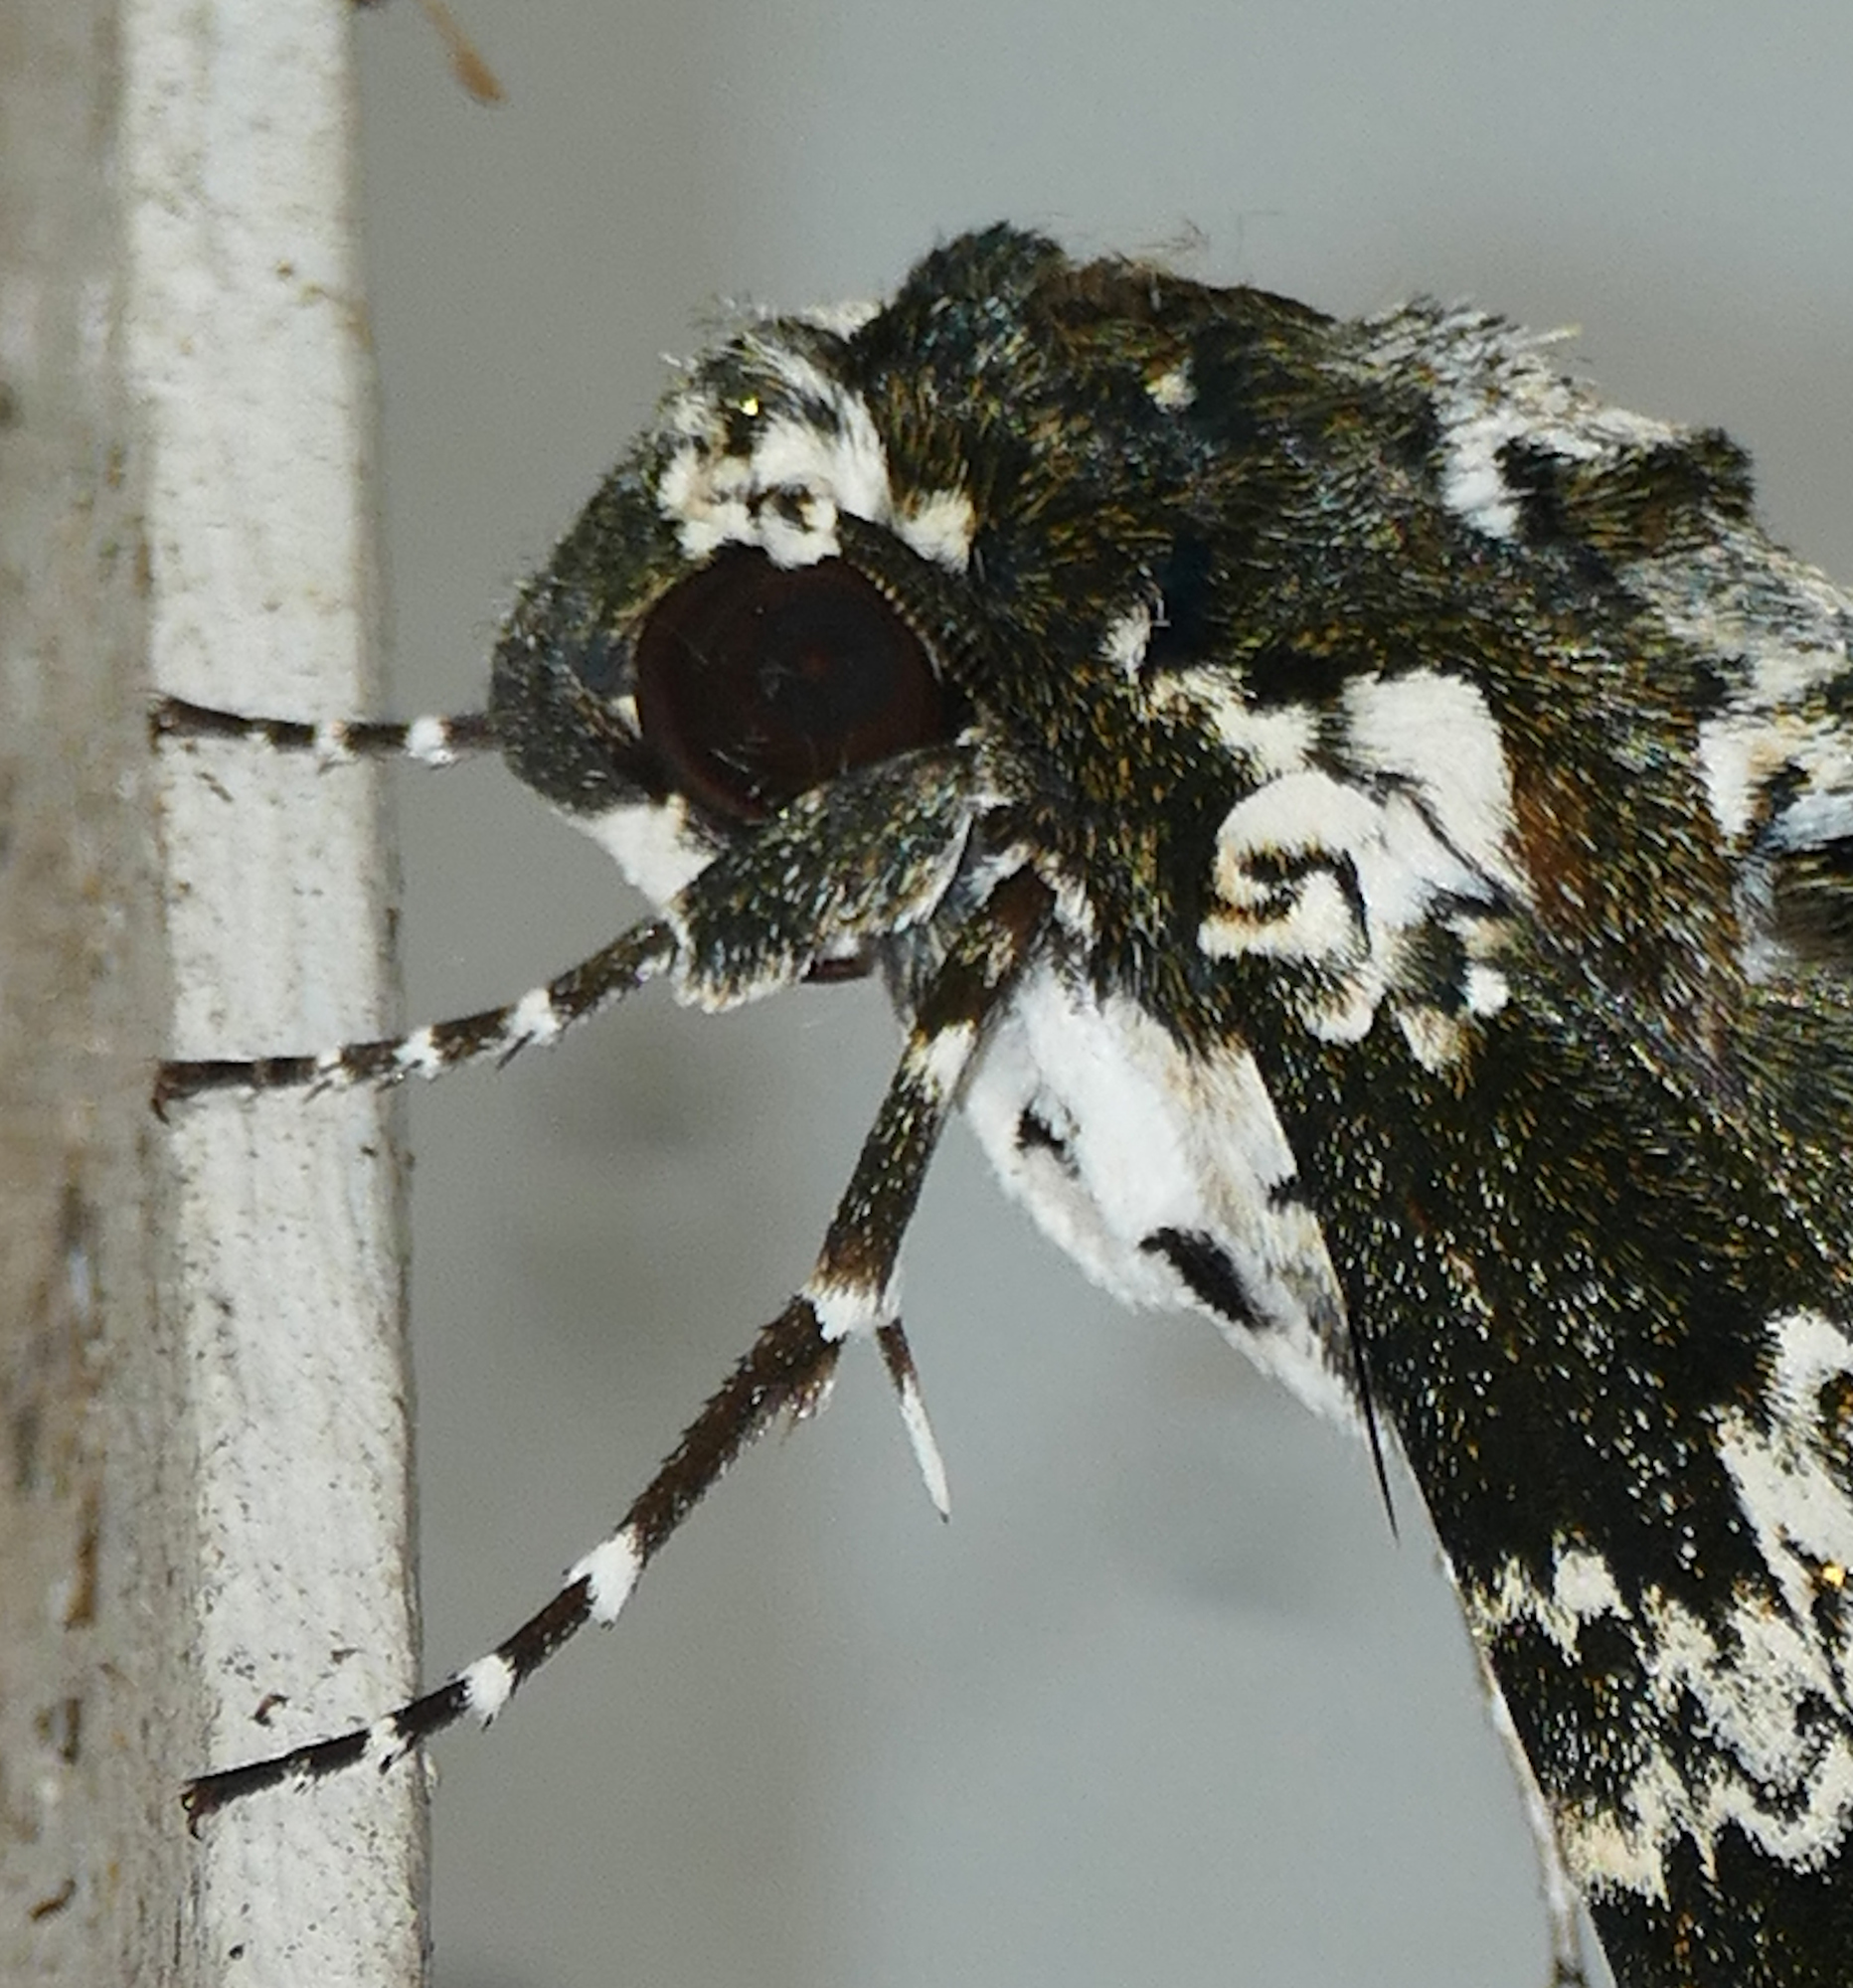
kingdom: Animalia
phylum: Arthropoda
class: Insecta
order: Lepidoptera
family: Sphingidae
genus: Manduca
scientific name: Manduca rustica
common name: Rustic sphinx
